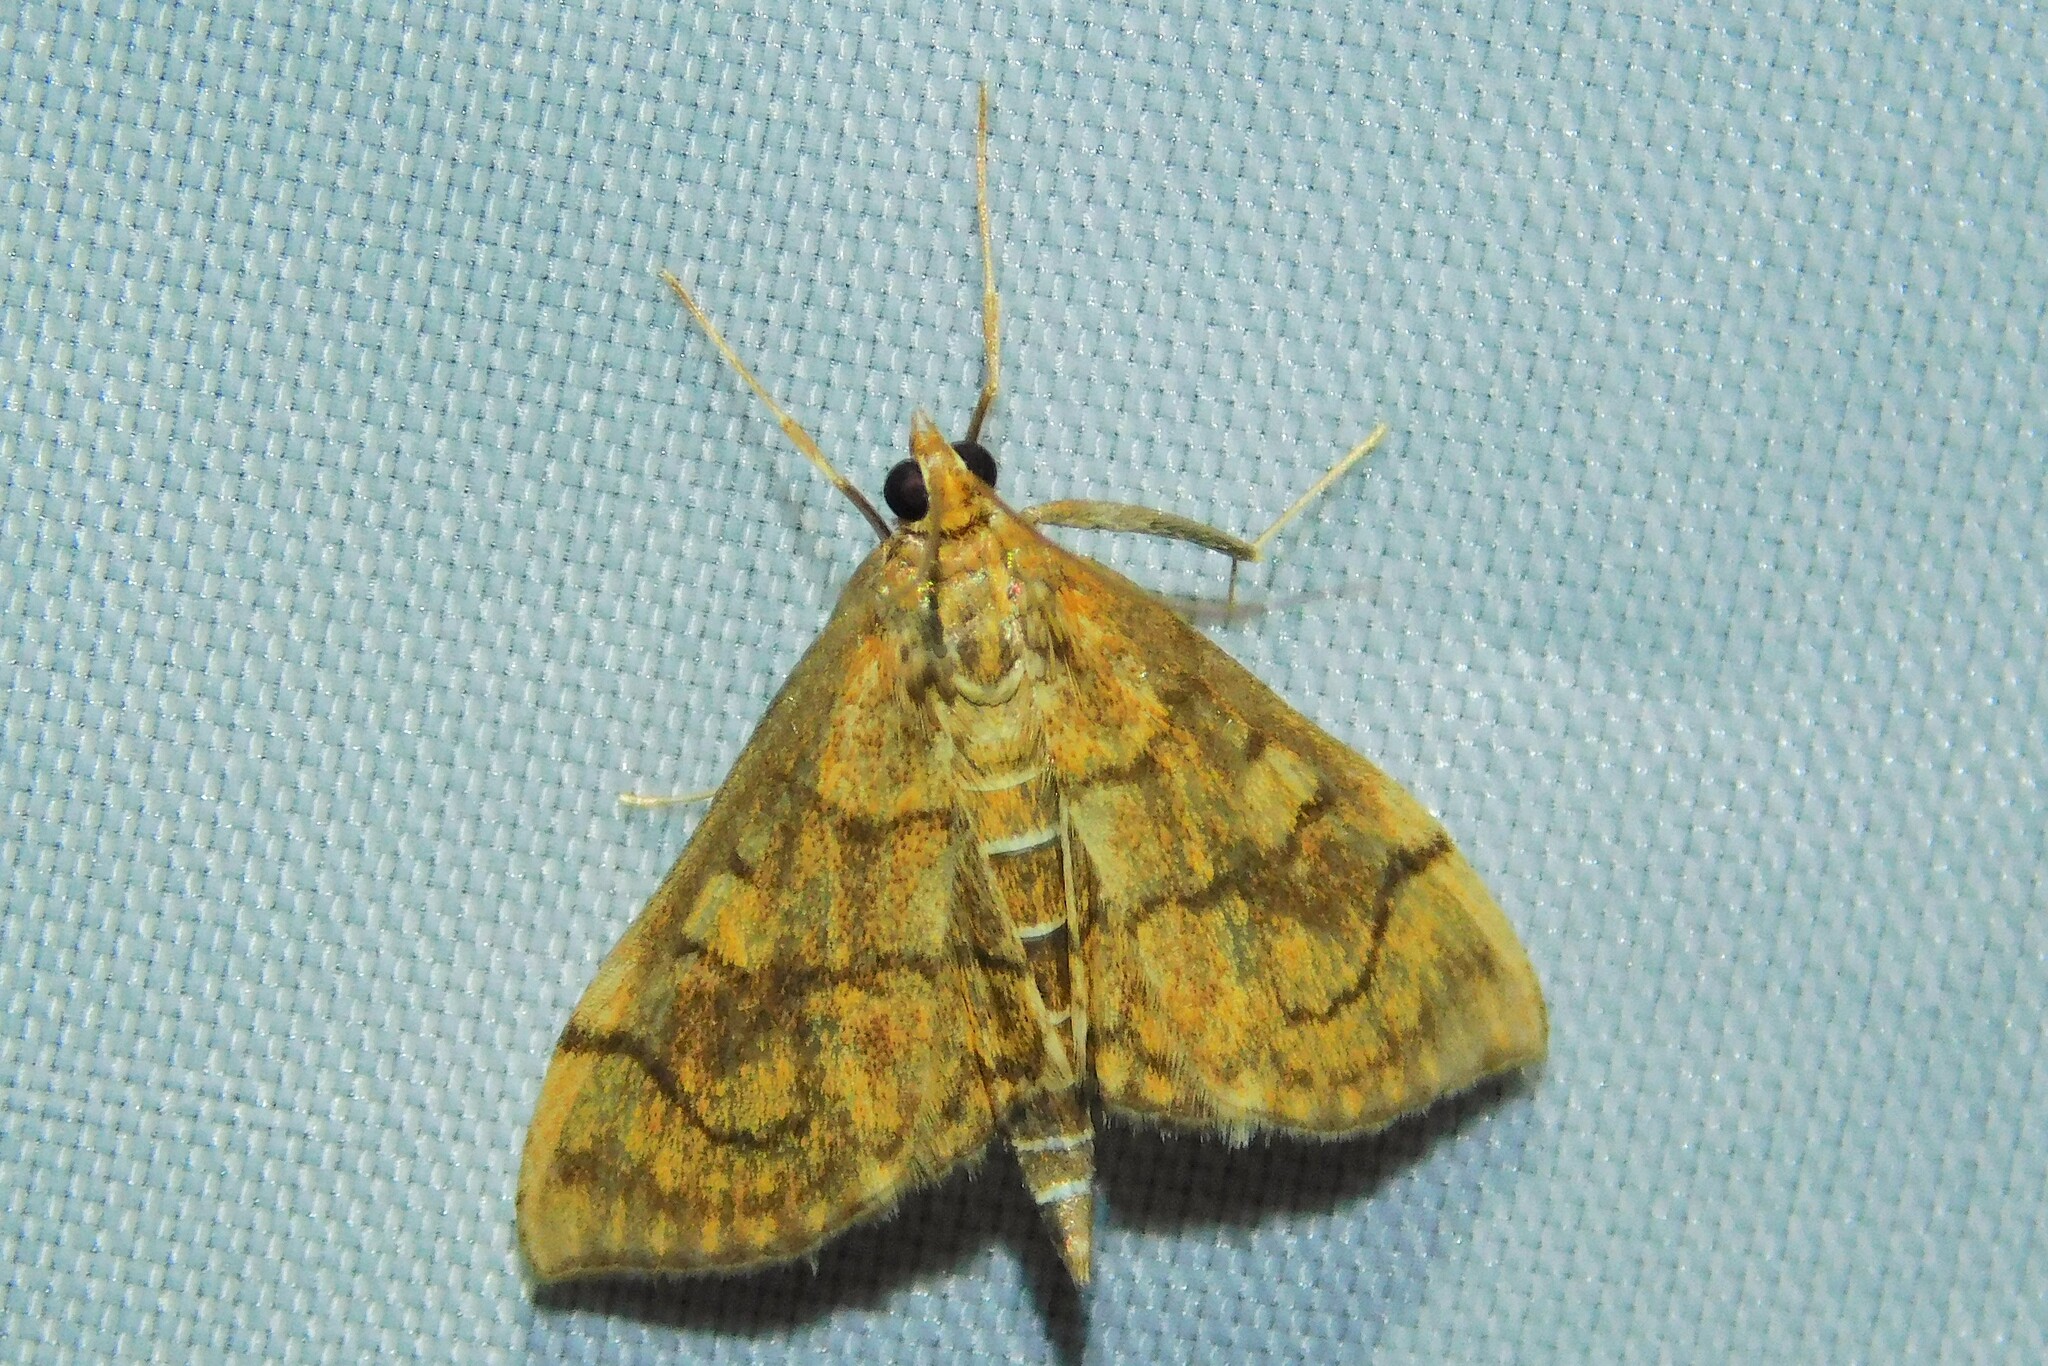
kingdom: Animalia
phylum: Arthropoda
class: Insecta
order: Lepidoptera
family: Crambidae
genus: Anania
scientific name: Anania verbascalis
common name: Golden pearl
